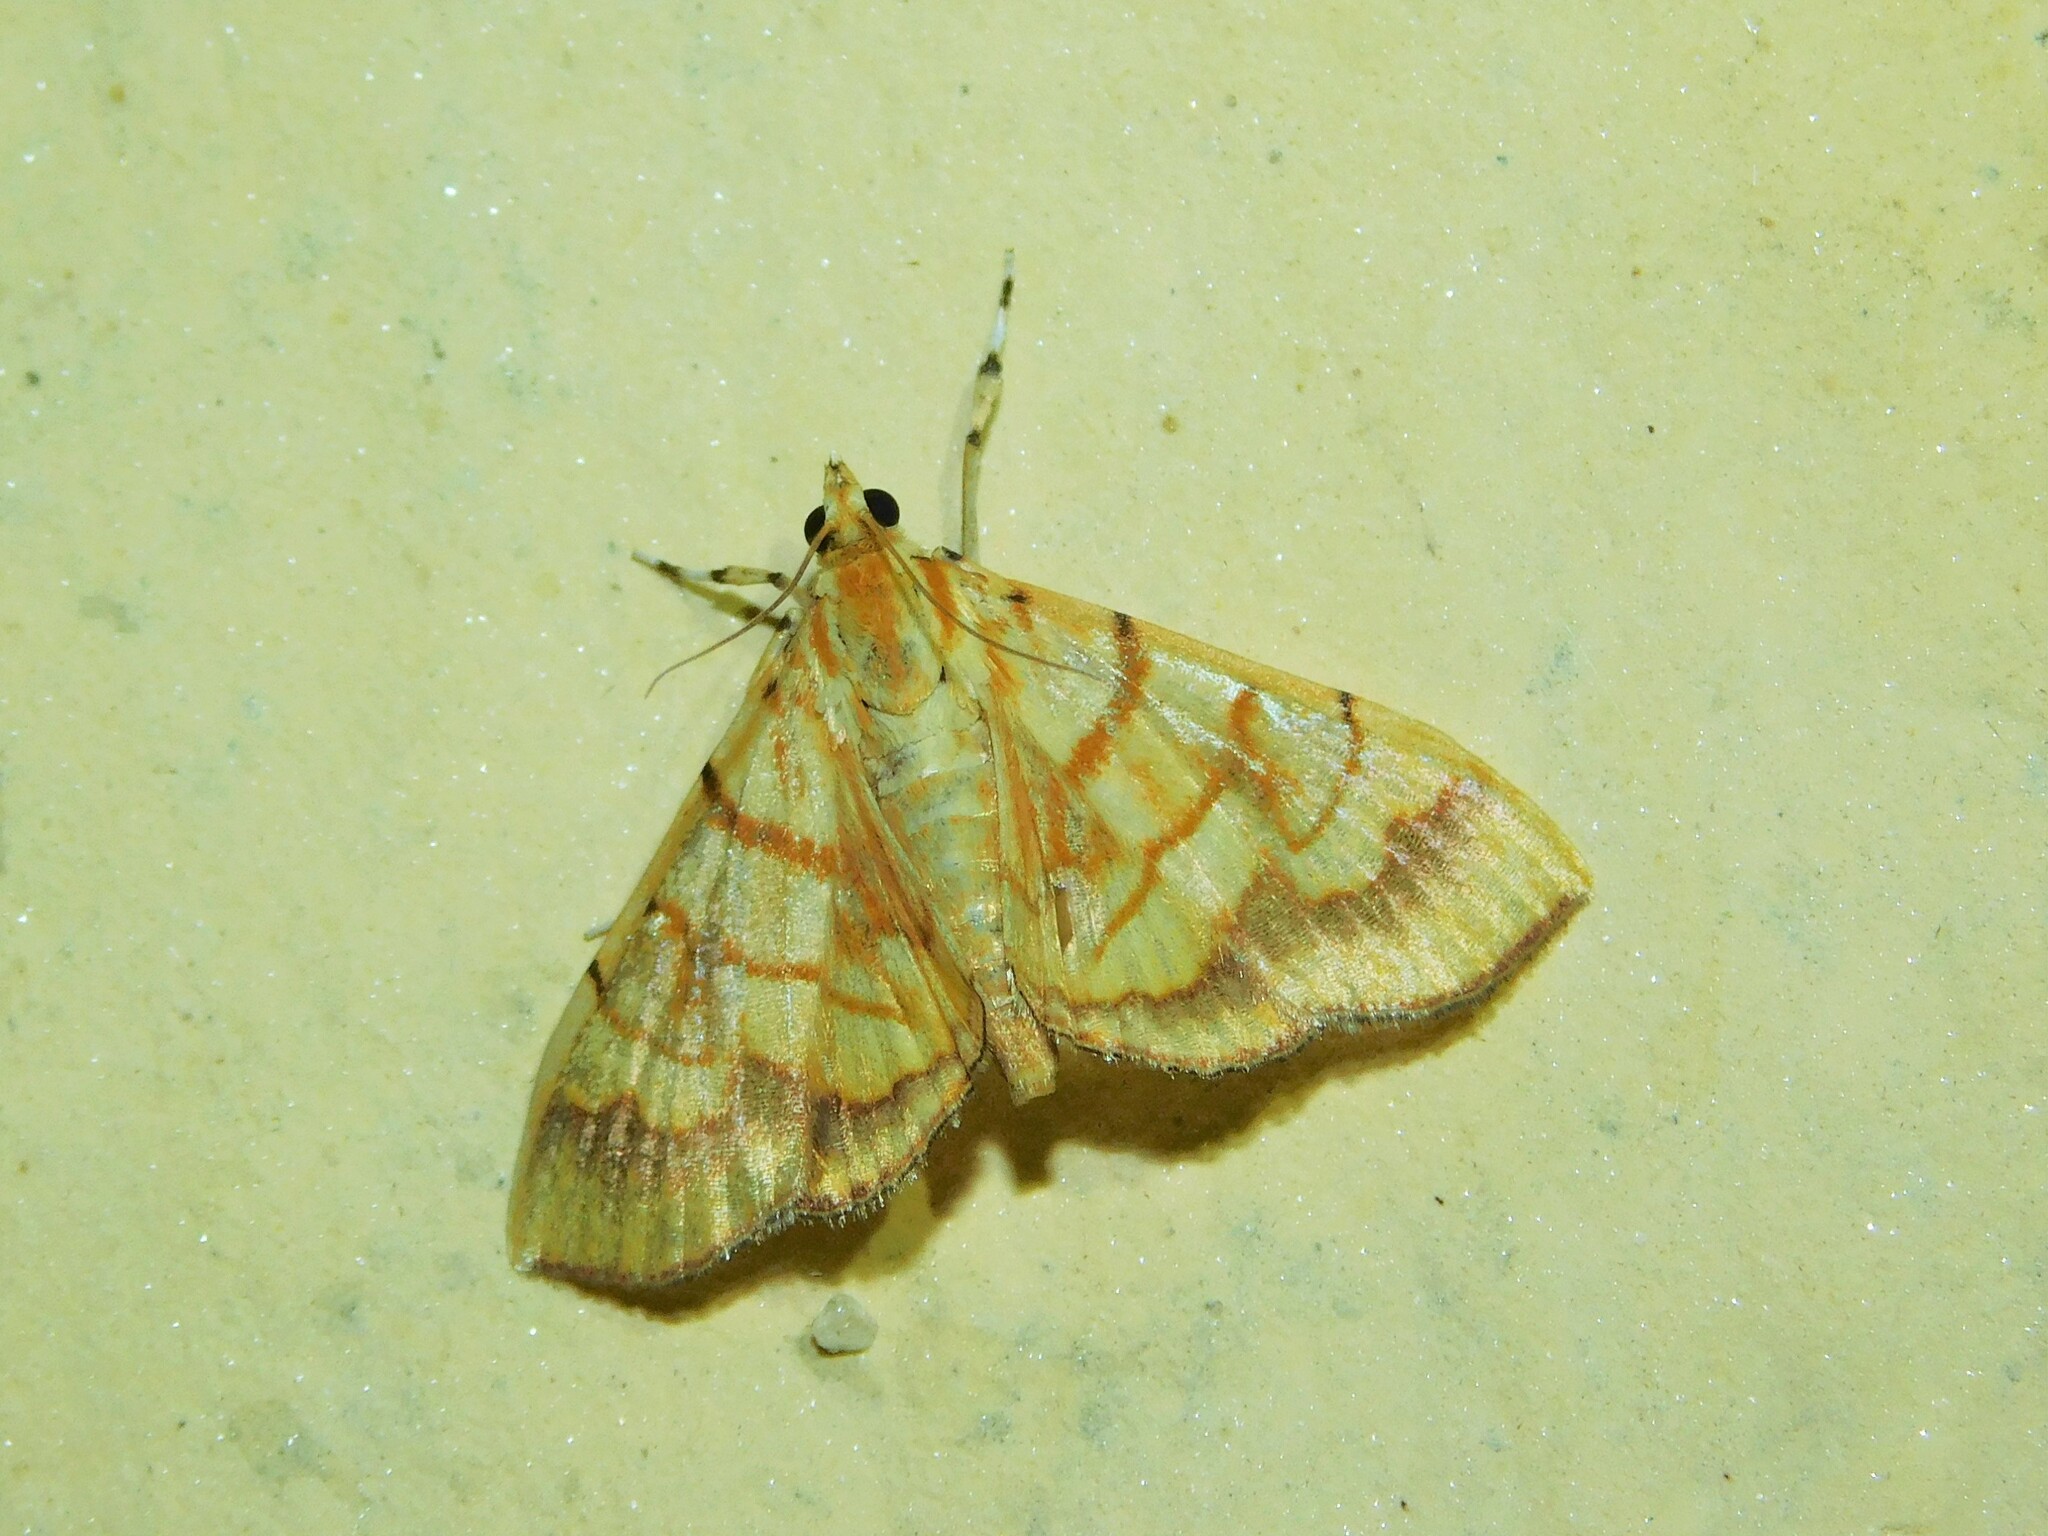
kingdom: Animalia
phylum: Arthropoda
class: Insecta
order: Lepidoptera
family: Crambidae
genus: Cryptosara
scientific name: Cryptosara caritalis
